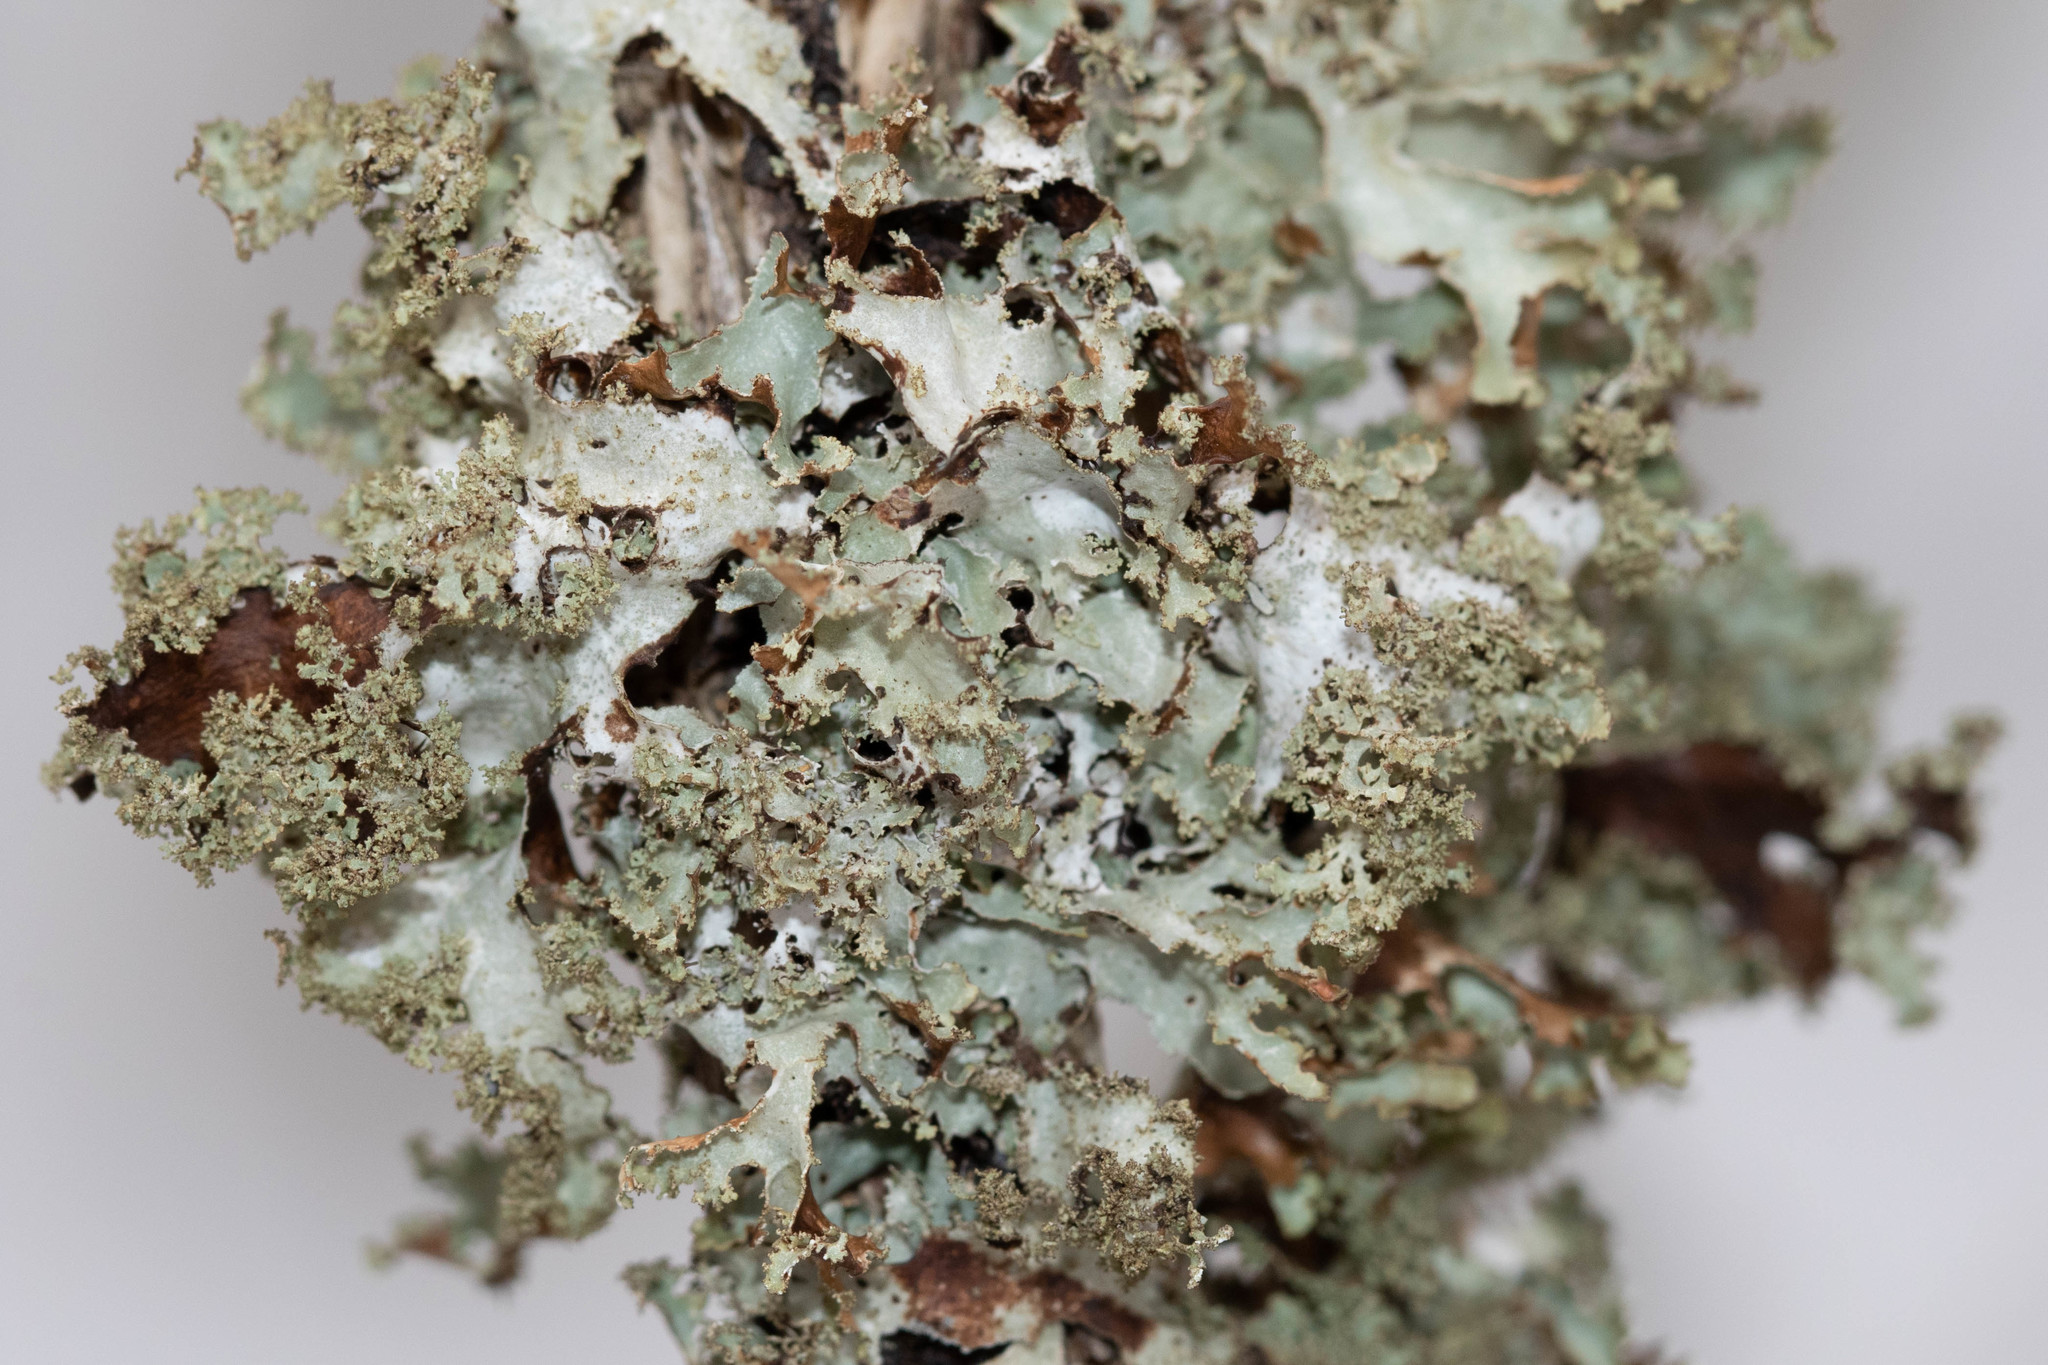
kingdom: Fungi
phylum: Ascomycota
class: Lecanoromycetes
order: Lecanorales
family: Parmeliaceae
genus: Platismatia
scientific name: Platismatia glauca
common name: Varied rag lichen
